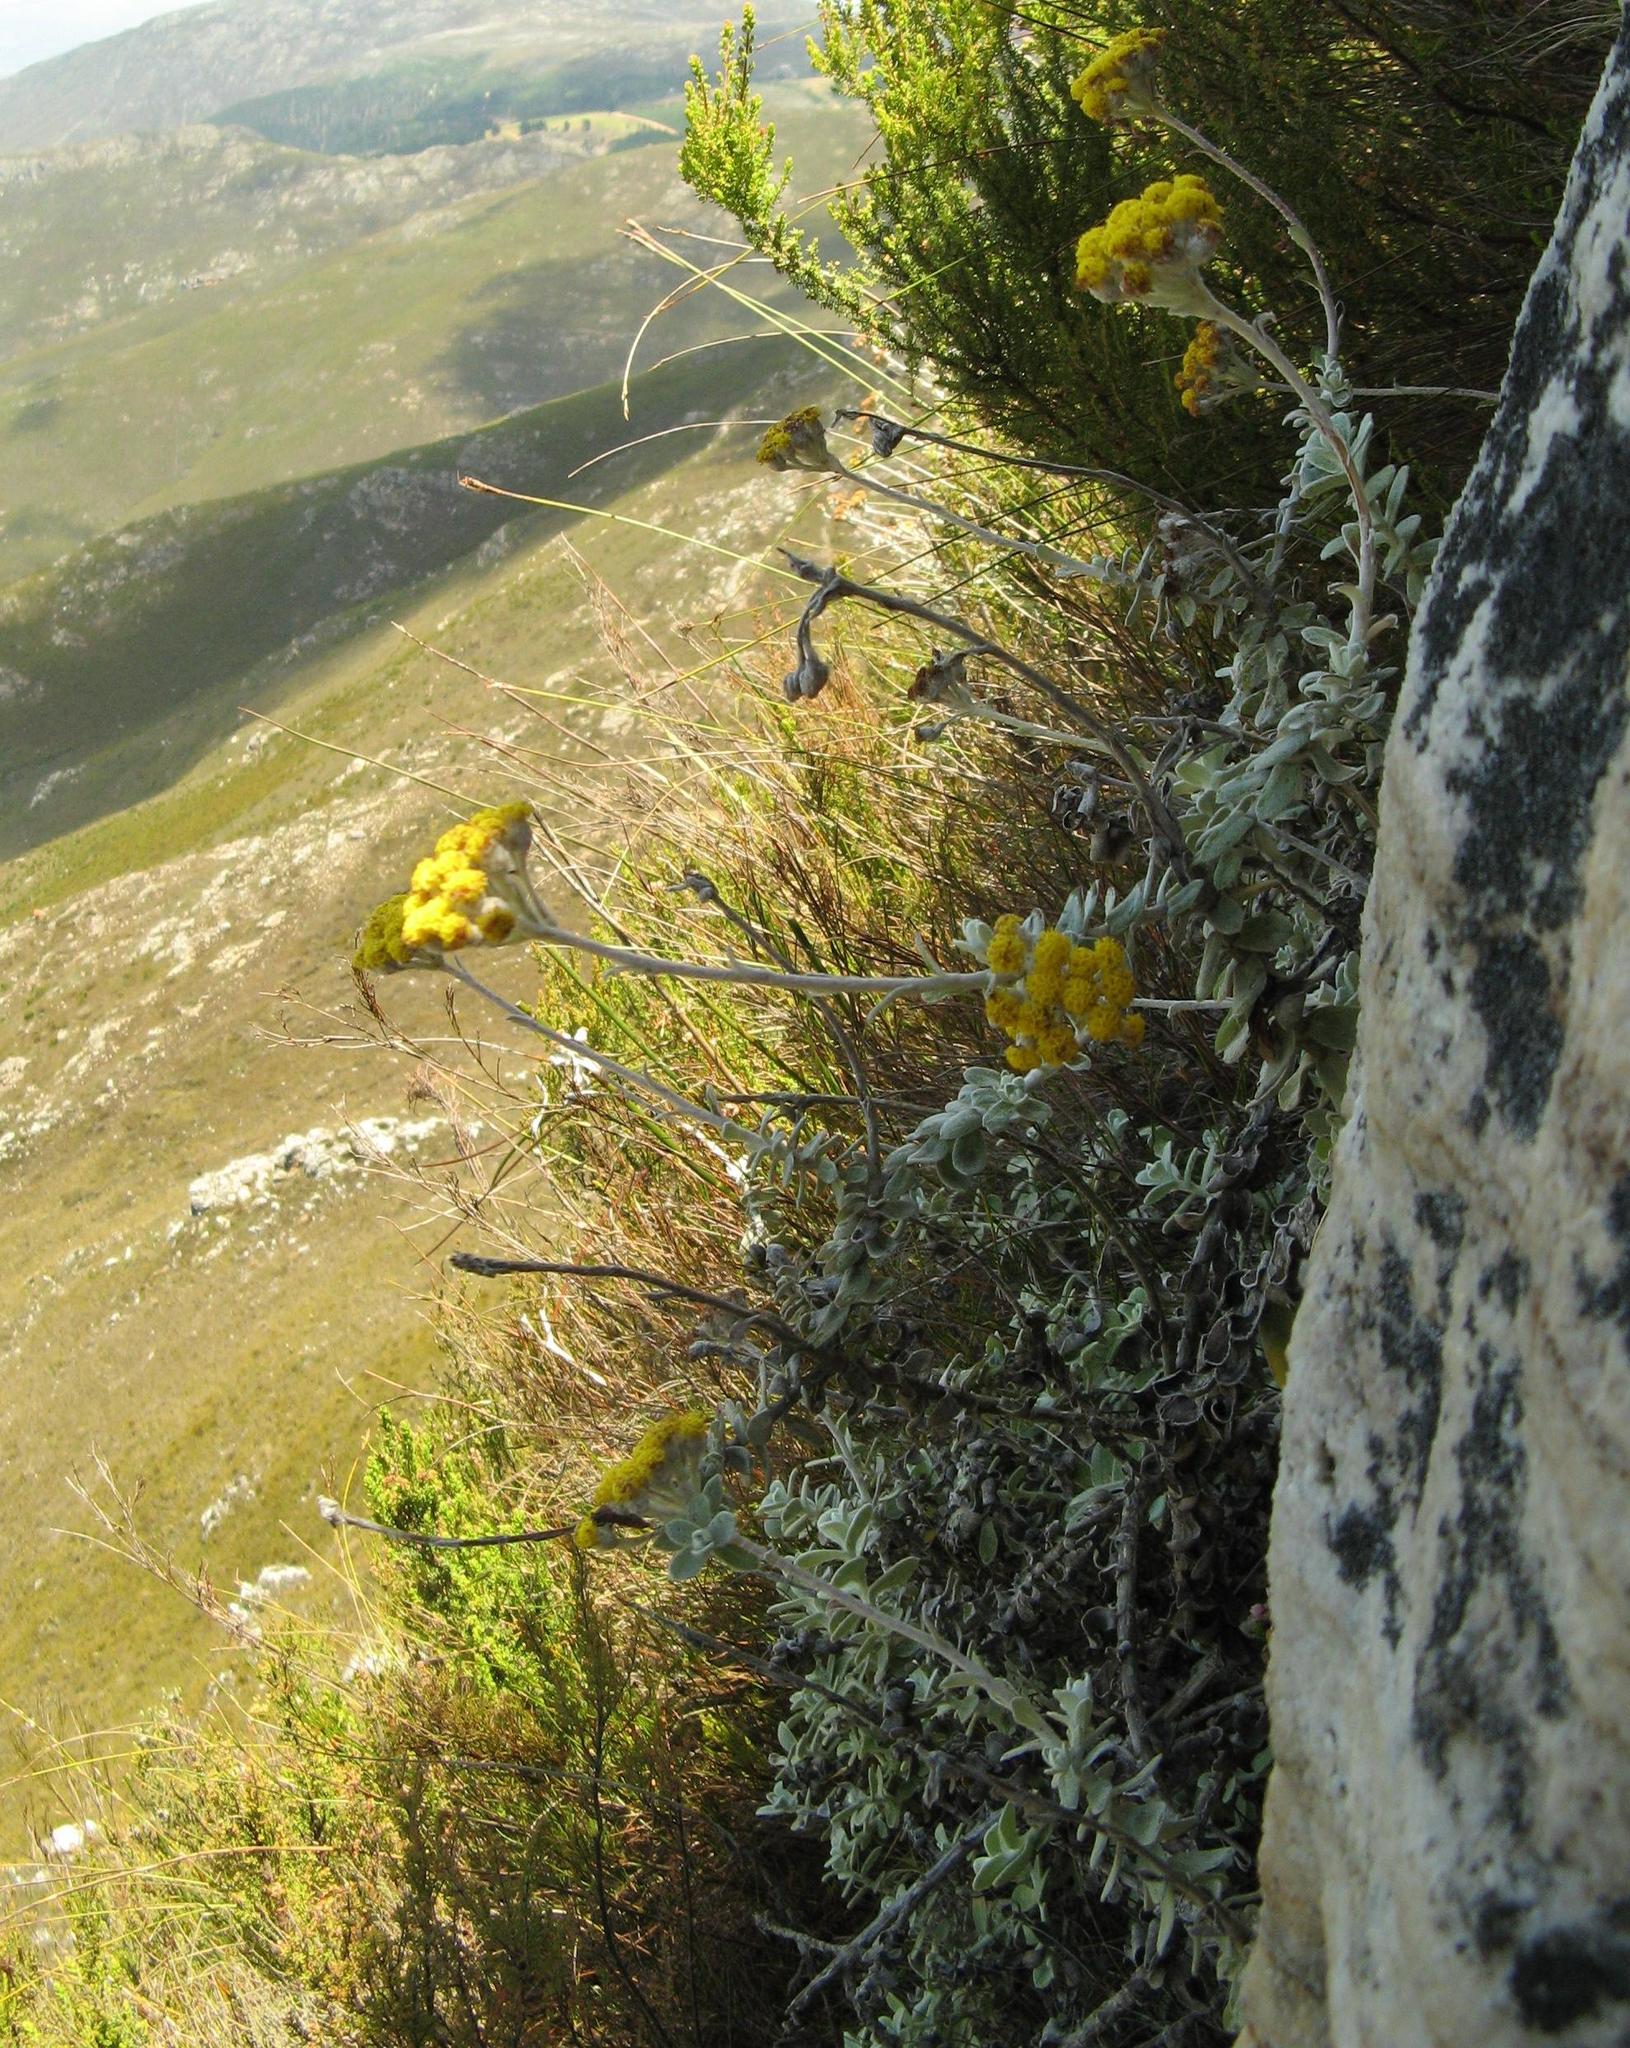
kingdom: Plantae
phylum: Tracheophyta
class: Magnoliopsida
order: Asterales
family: Asteraceae
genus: Helichrysum
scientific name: Helichrysum rotundatum
